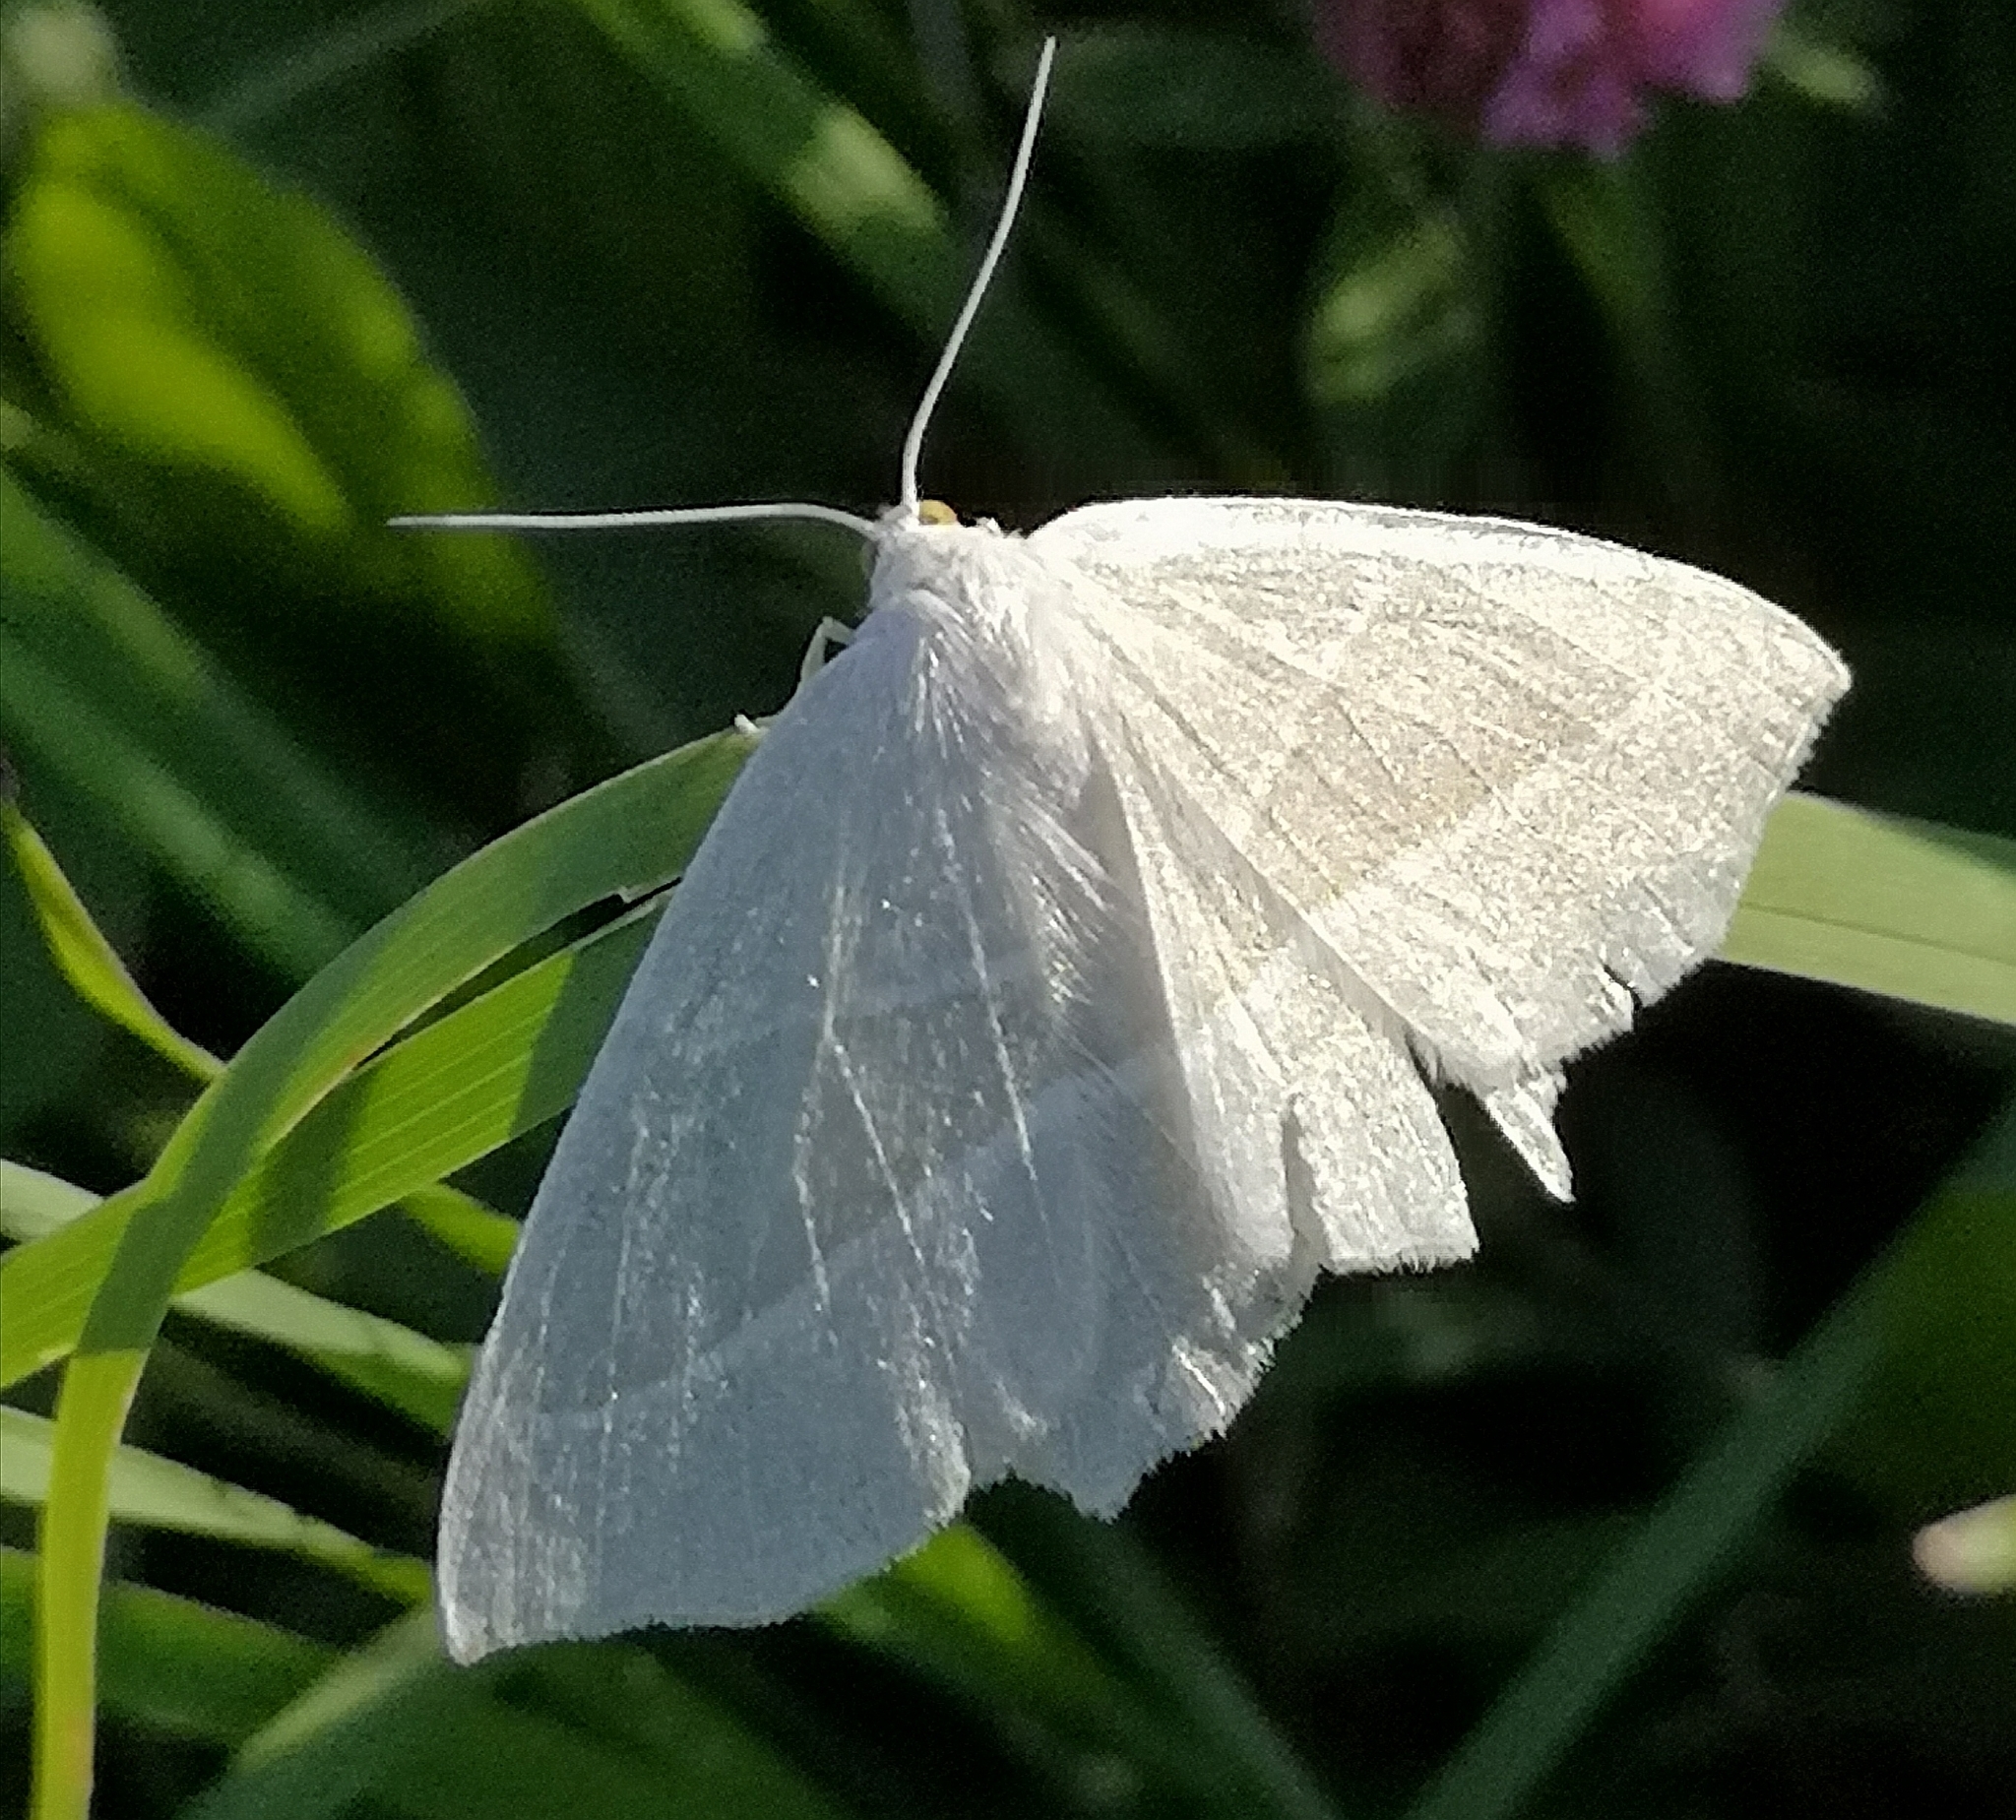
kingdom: Animalia
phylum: Arthropoda
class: Insecta
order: Lepidoptera
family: Geometridae
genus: Campaea
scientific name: Campaea margaritaria
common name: Light emerald
